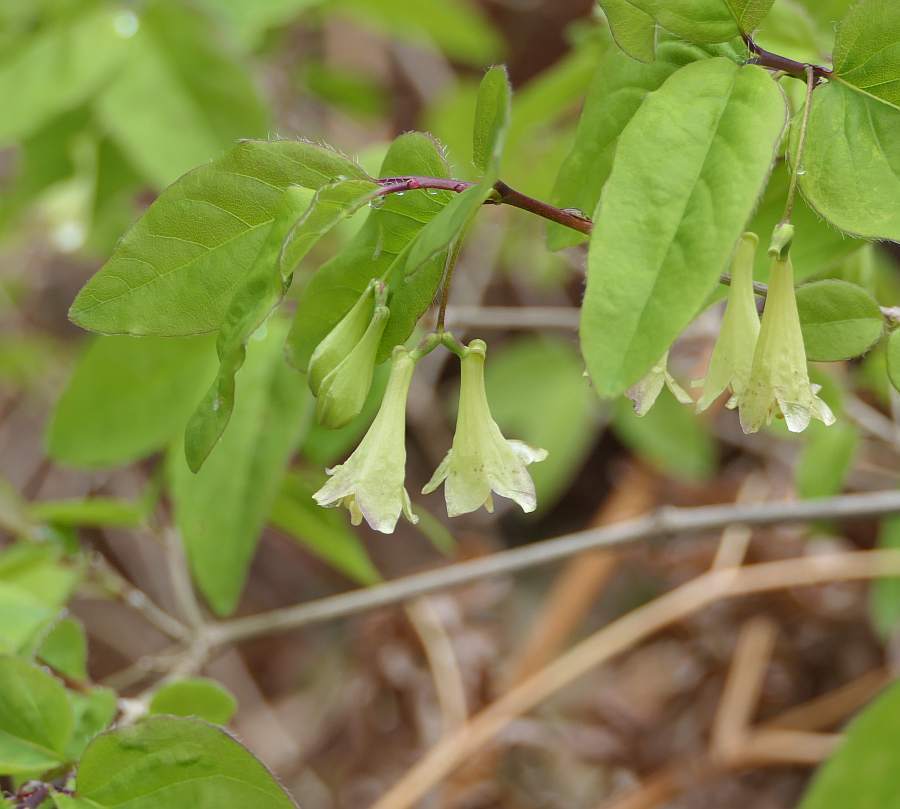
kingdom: Plantae
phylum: Tracheophyta
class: Magnoliopsida
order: Dipsacales
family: Caprifoliaceae
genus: Lonicera
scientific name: Lonicera canadensis
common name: American fly-honeysuckle
